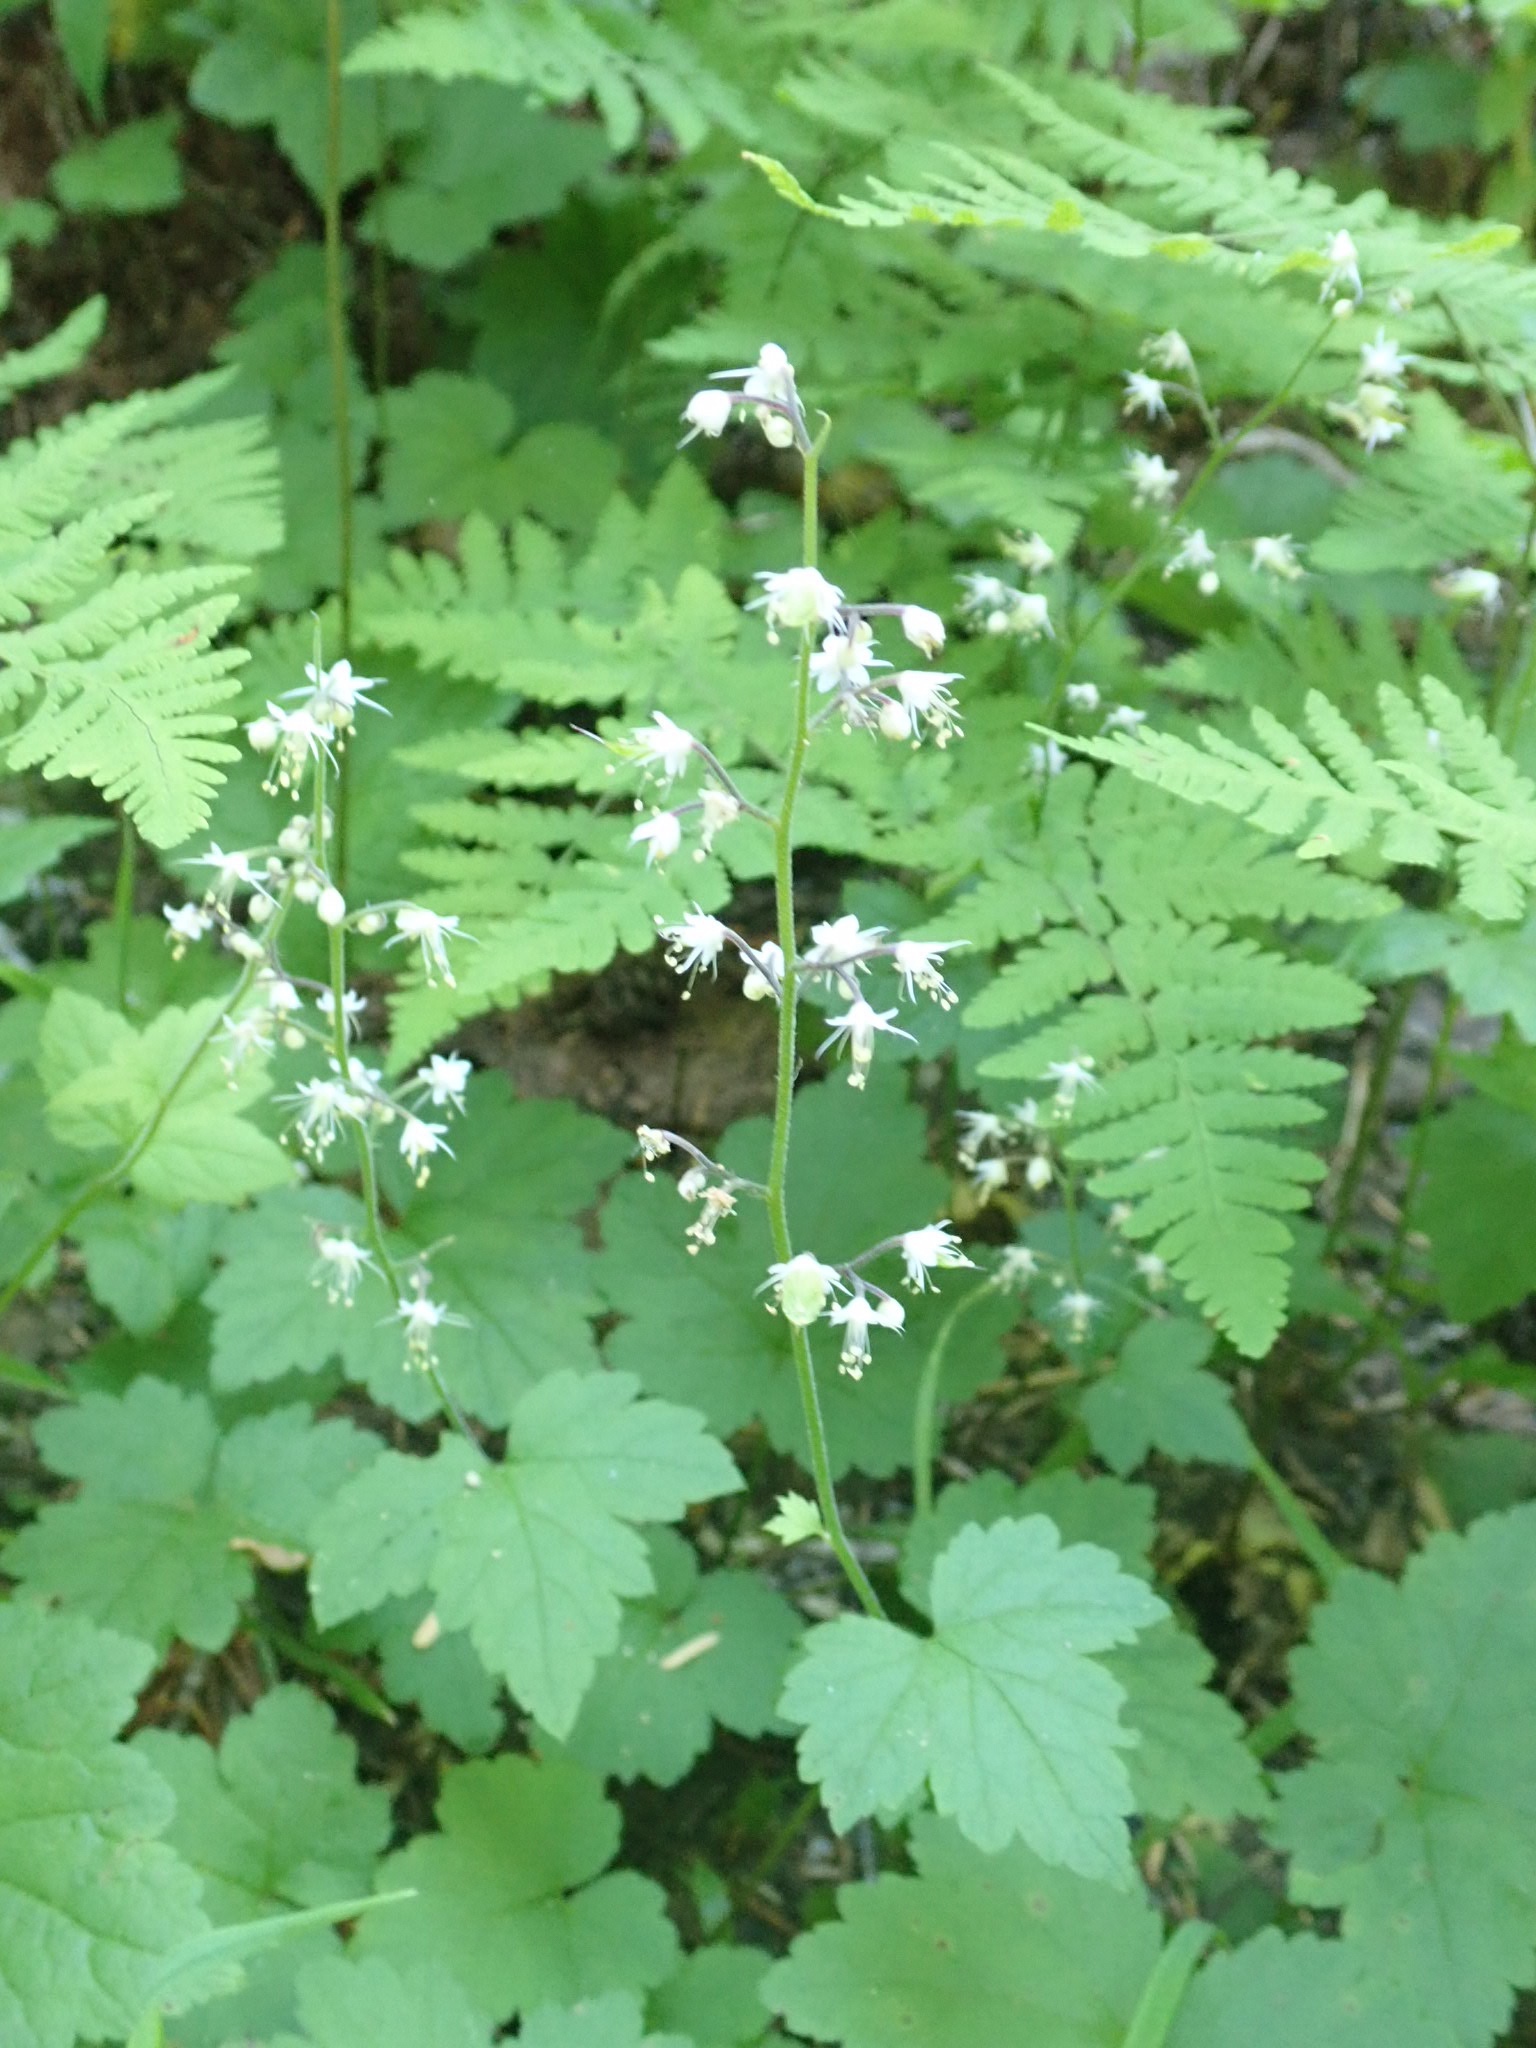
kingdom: Plantae
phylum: Tracheophyta
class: Magnoliopsida
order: Saxifragales
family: Saxifragaceae
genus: Tiarella
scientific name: Tiarella trifoliata
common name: Sugar-scoop
